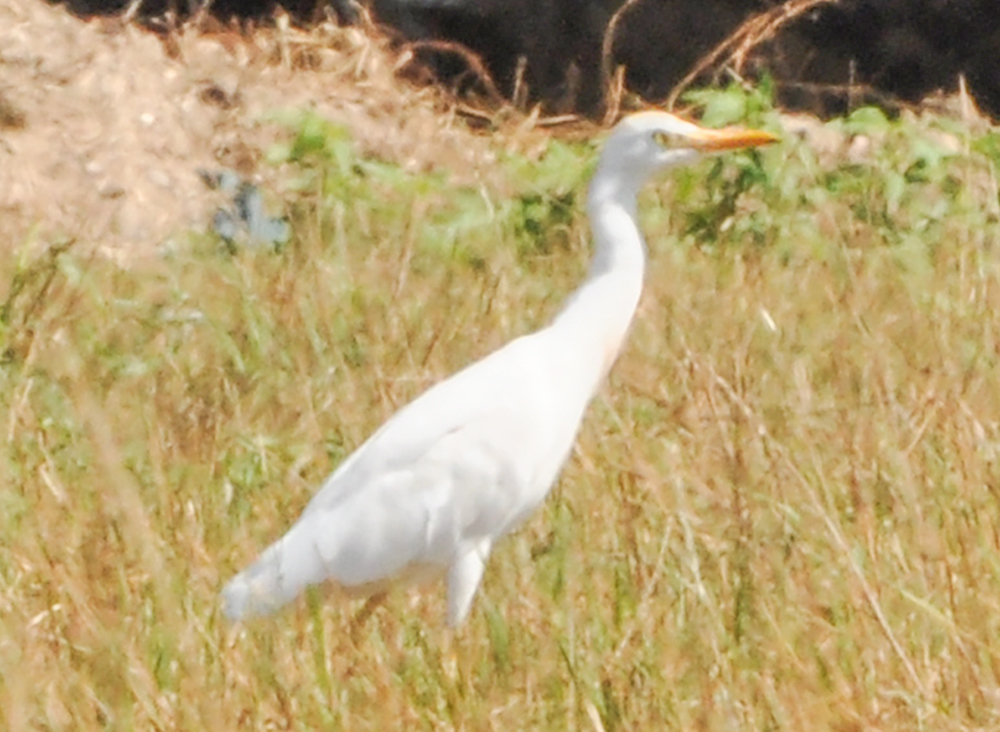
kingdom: Animalia
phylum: Chordata
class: Aves
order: Pelecaniformes
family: Ardeidae
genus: Bubulcus
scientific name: Bubulcus ibis
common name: Cattle egret
